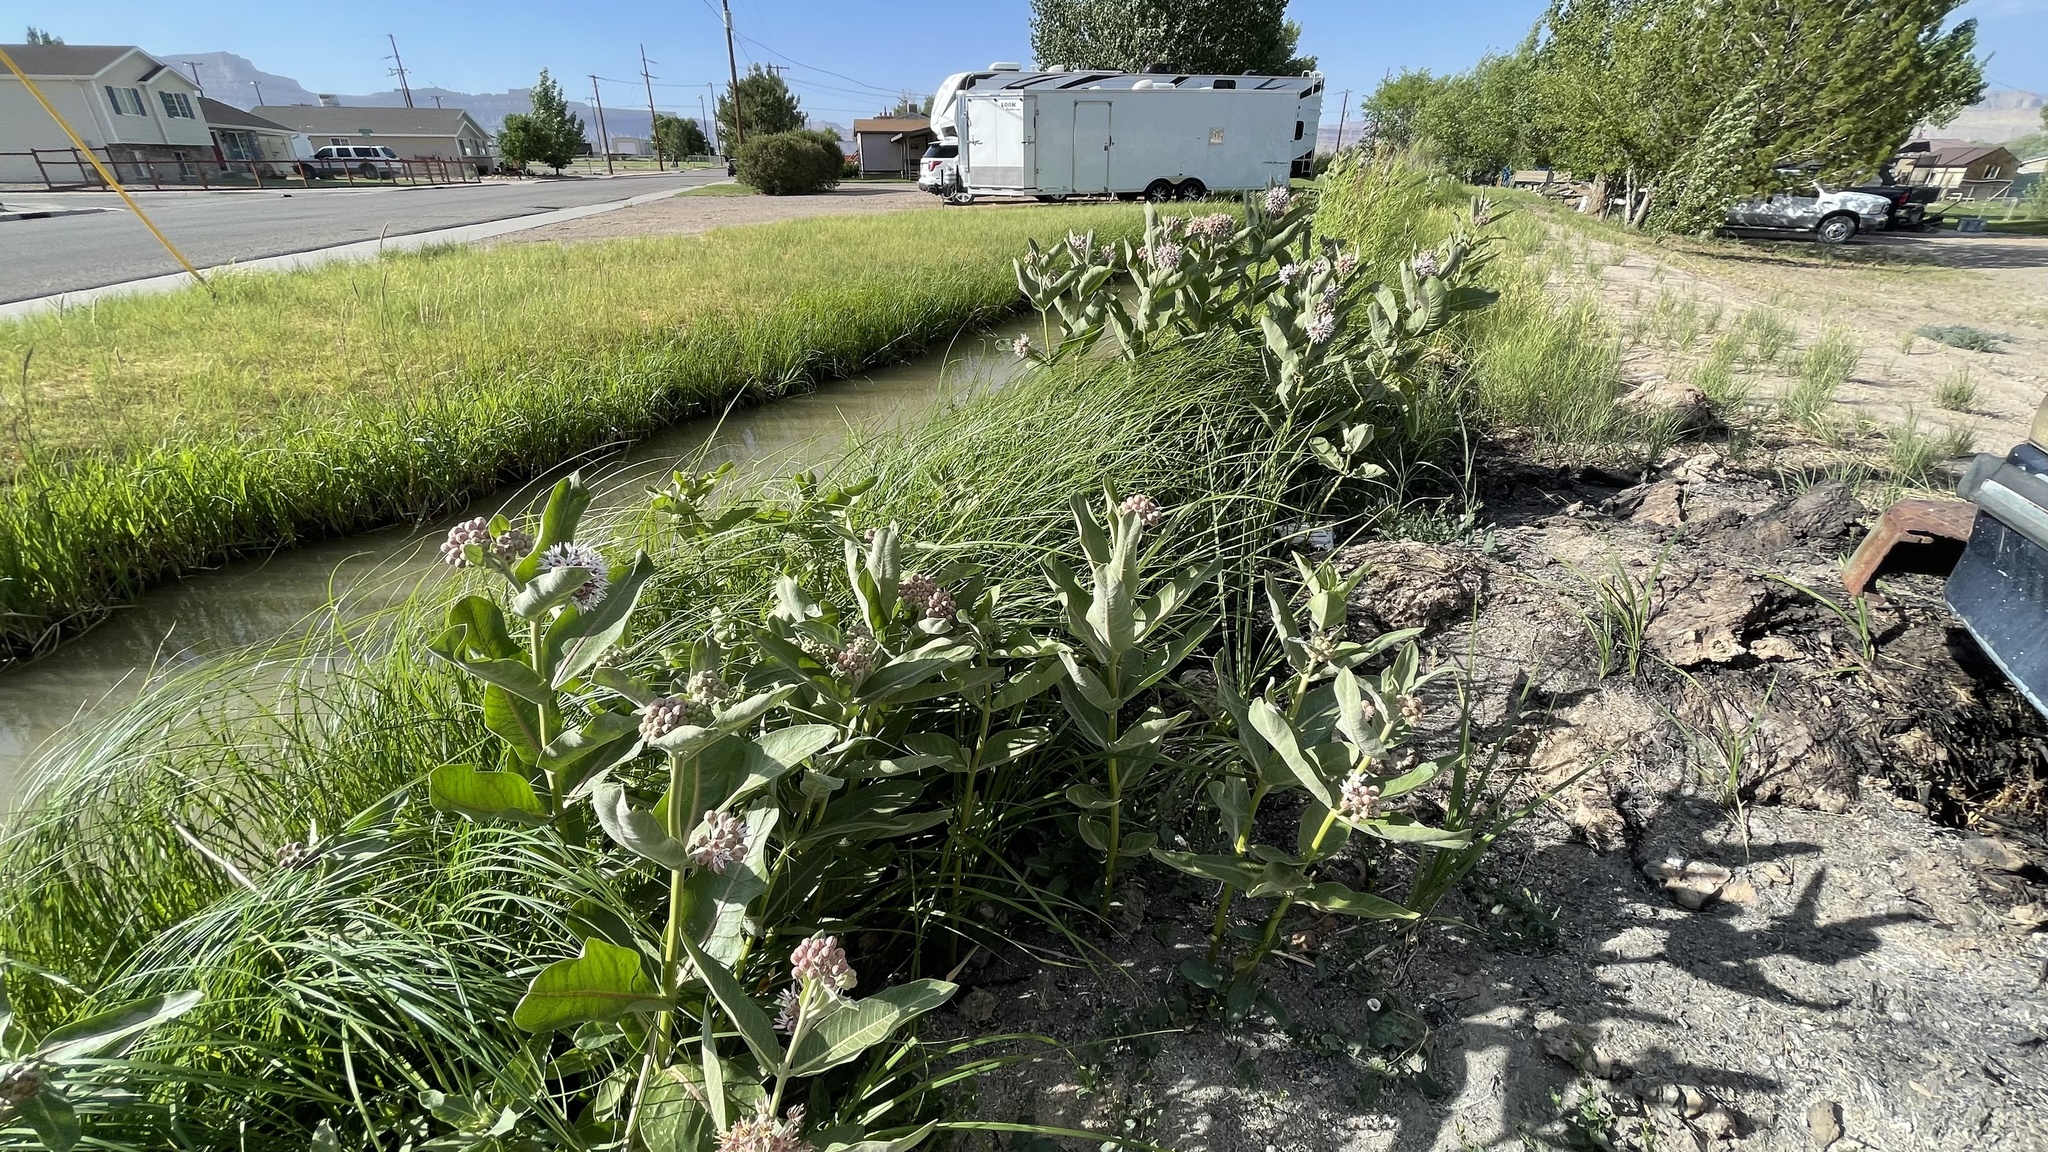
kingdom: Plantae
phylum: Tracheophyta
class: Magnoliopsida
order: Gentianales
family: Apocynaceae
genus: Asclepias
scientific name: Asclepias speciosa
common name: Showy milkweed
